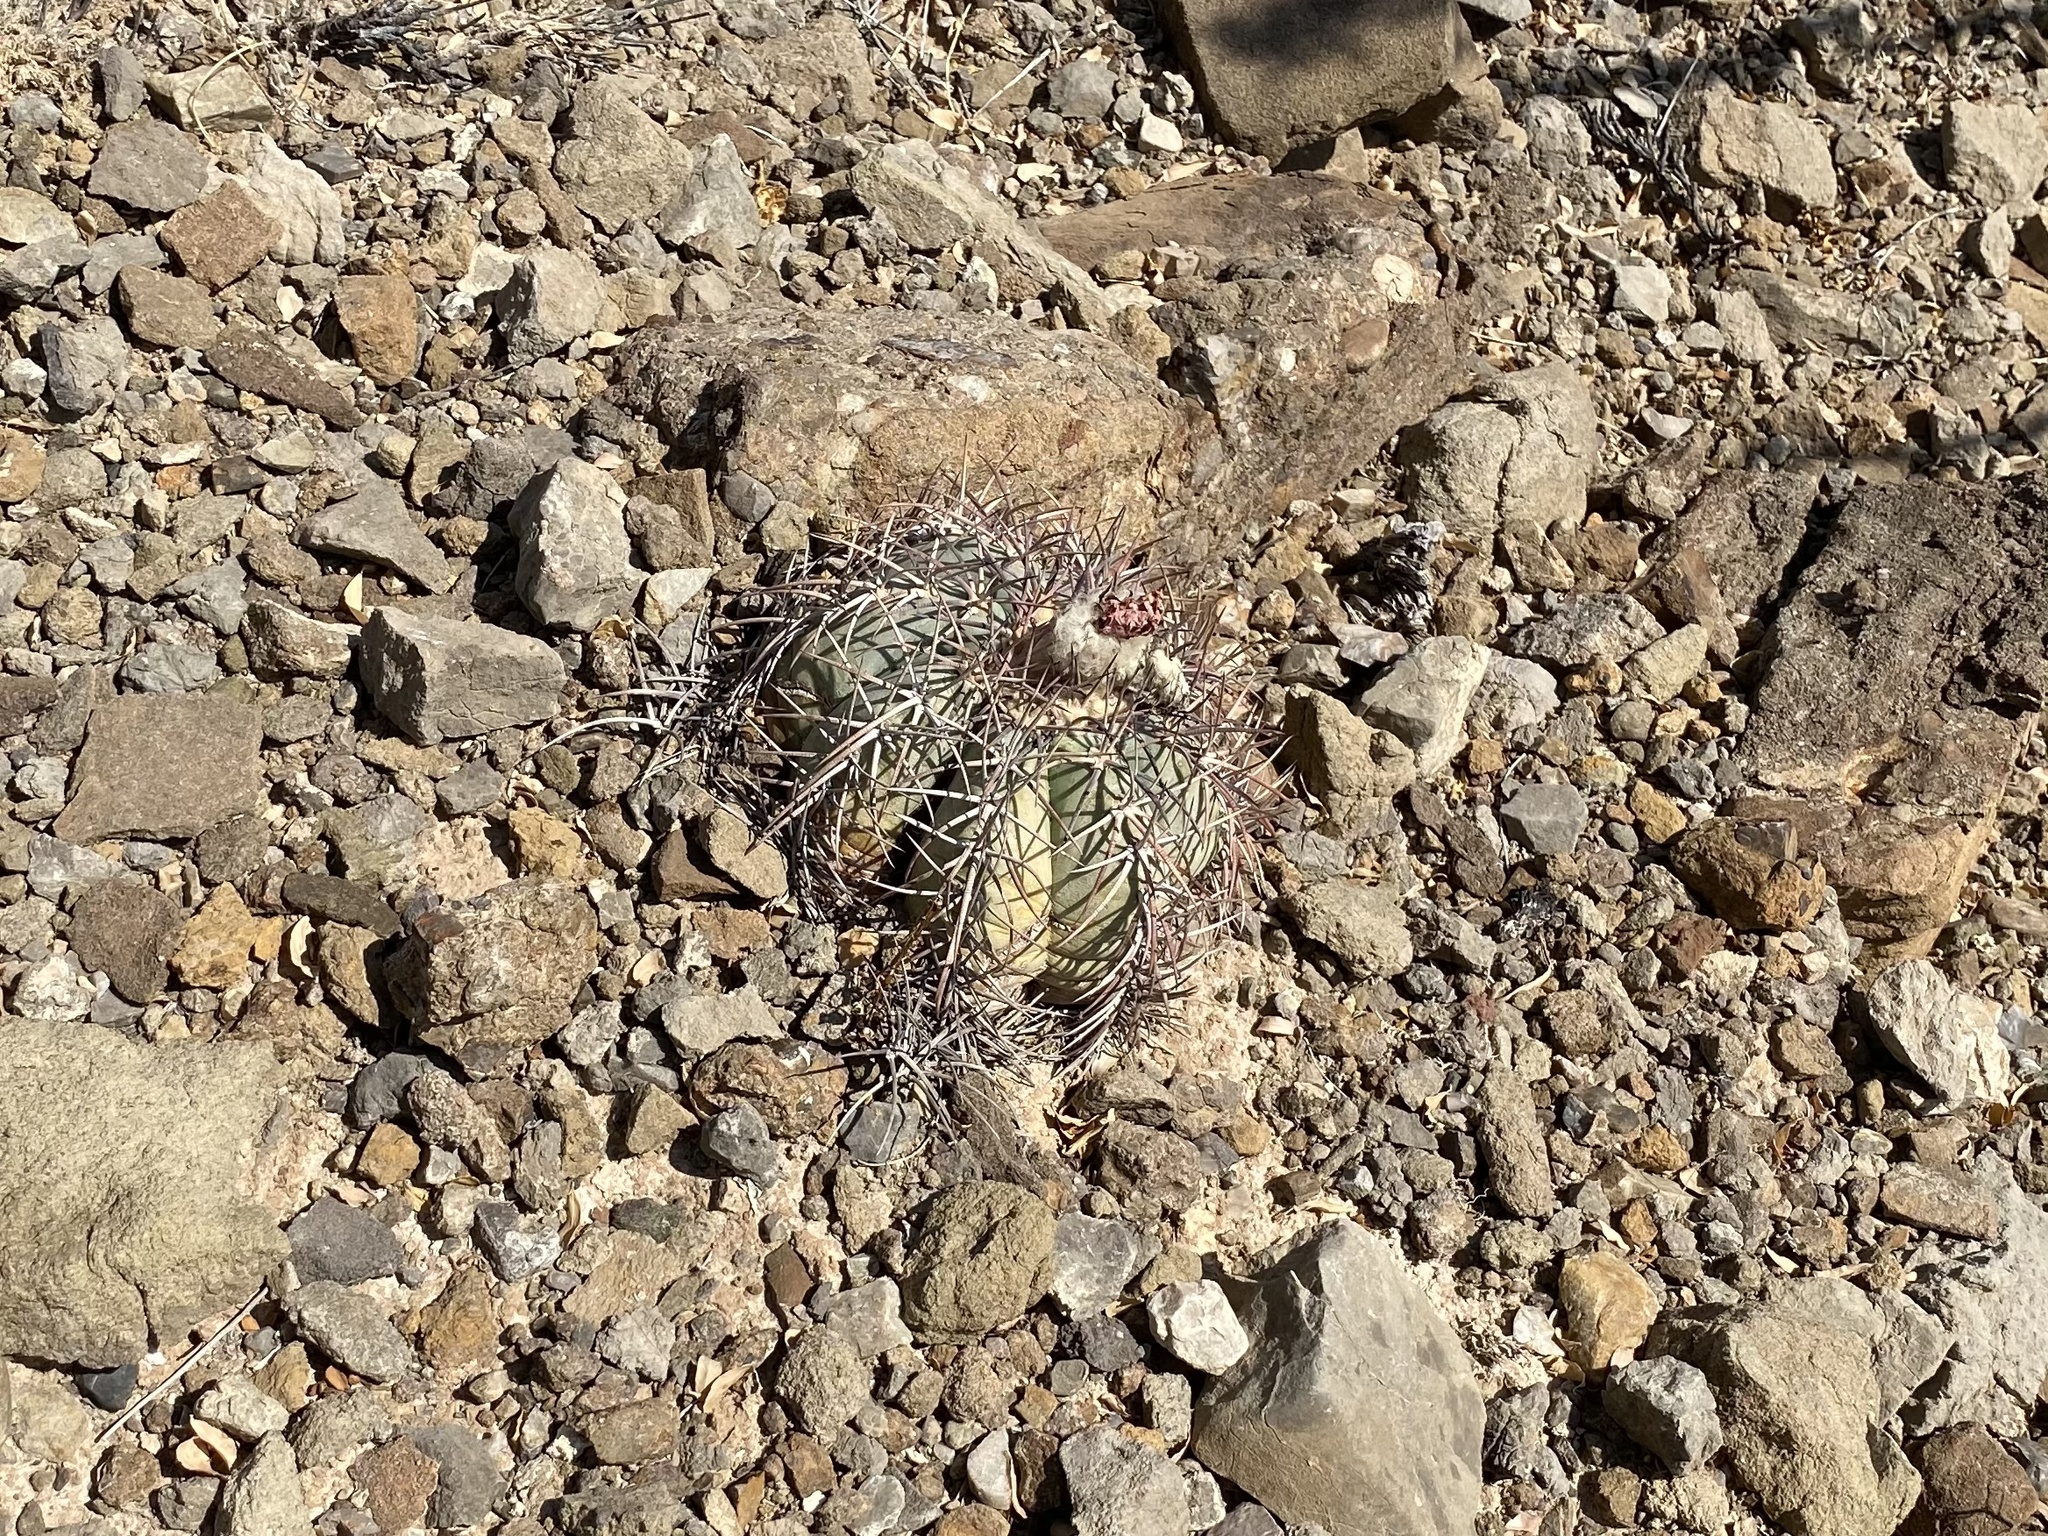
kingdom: Plantae
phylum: Tracheophyta
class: Magnoliopsida
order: Caryophyllales
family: Cactaceae
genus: Echinocactus
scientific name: Echinocactus horizonthalonius
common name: Devilshead
